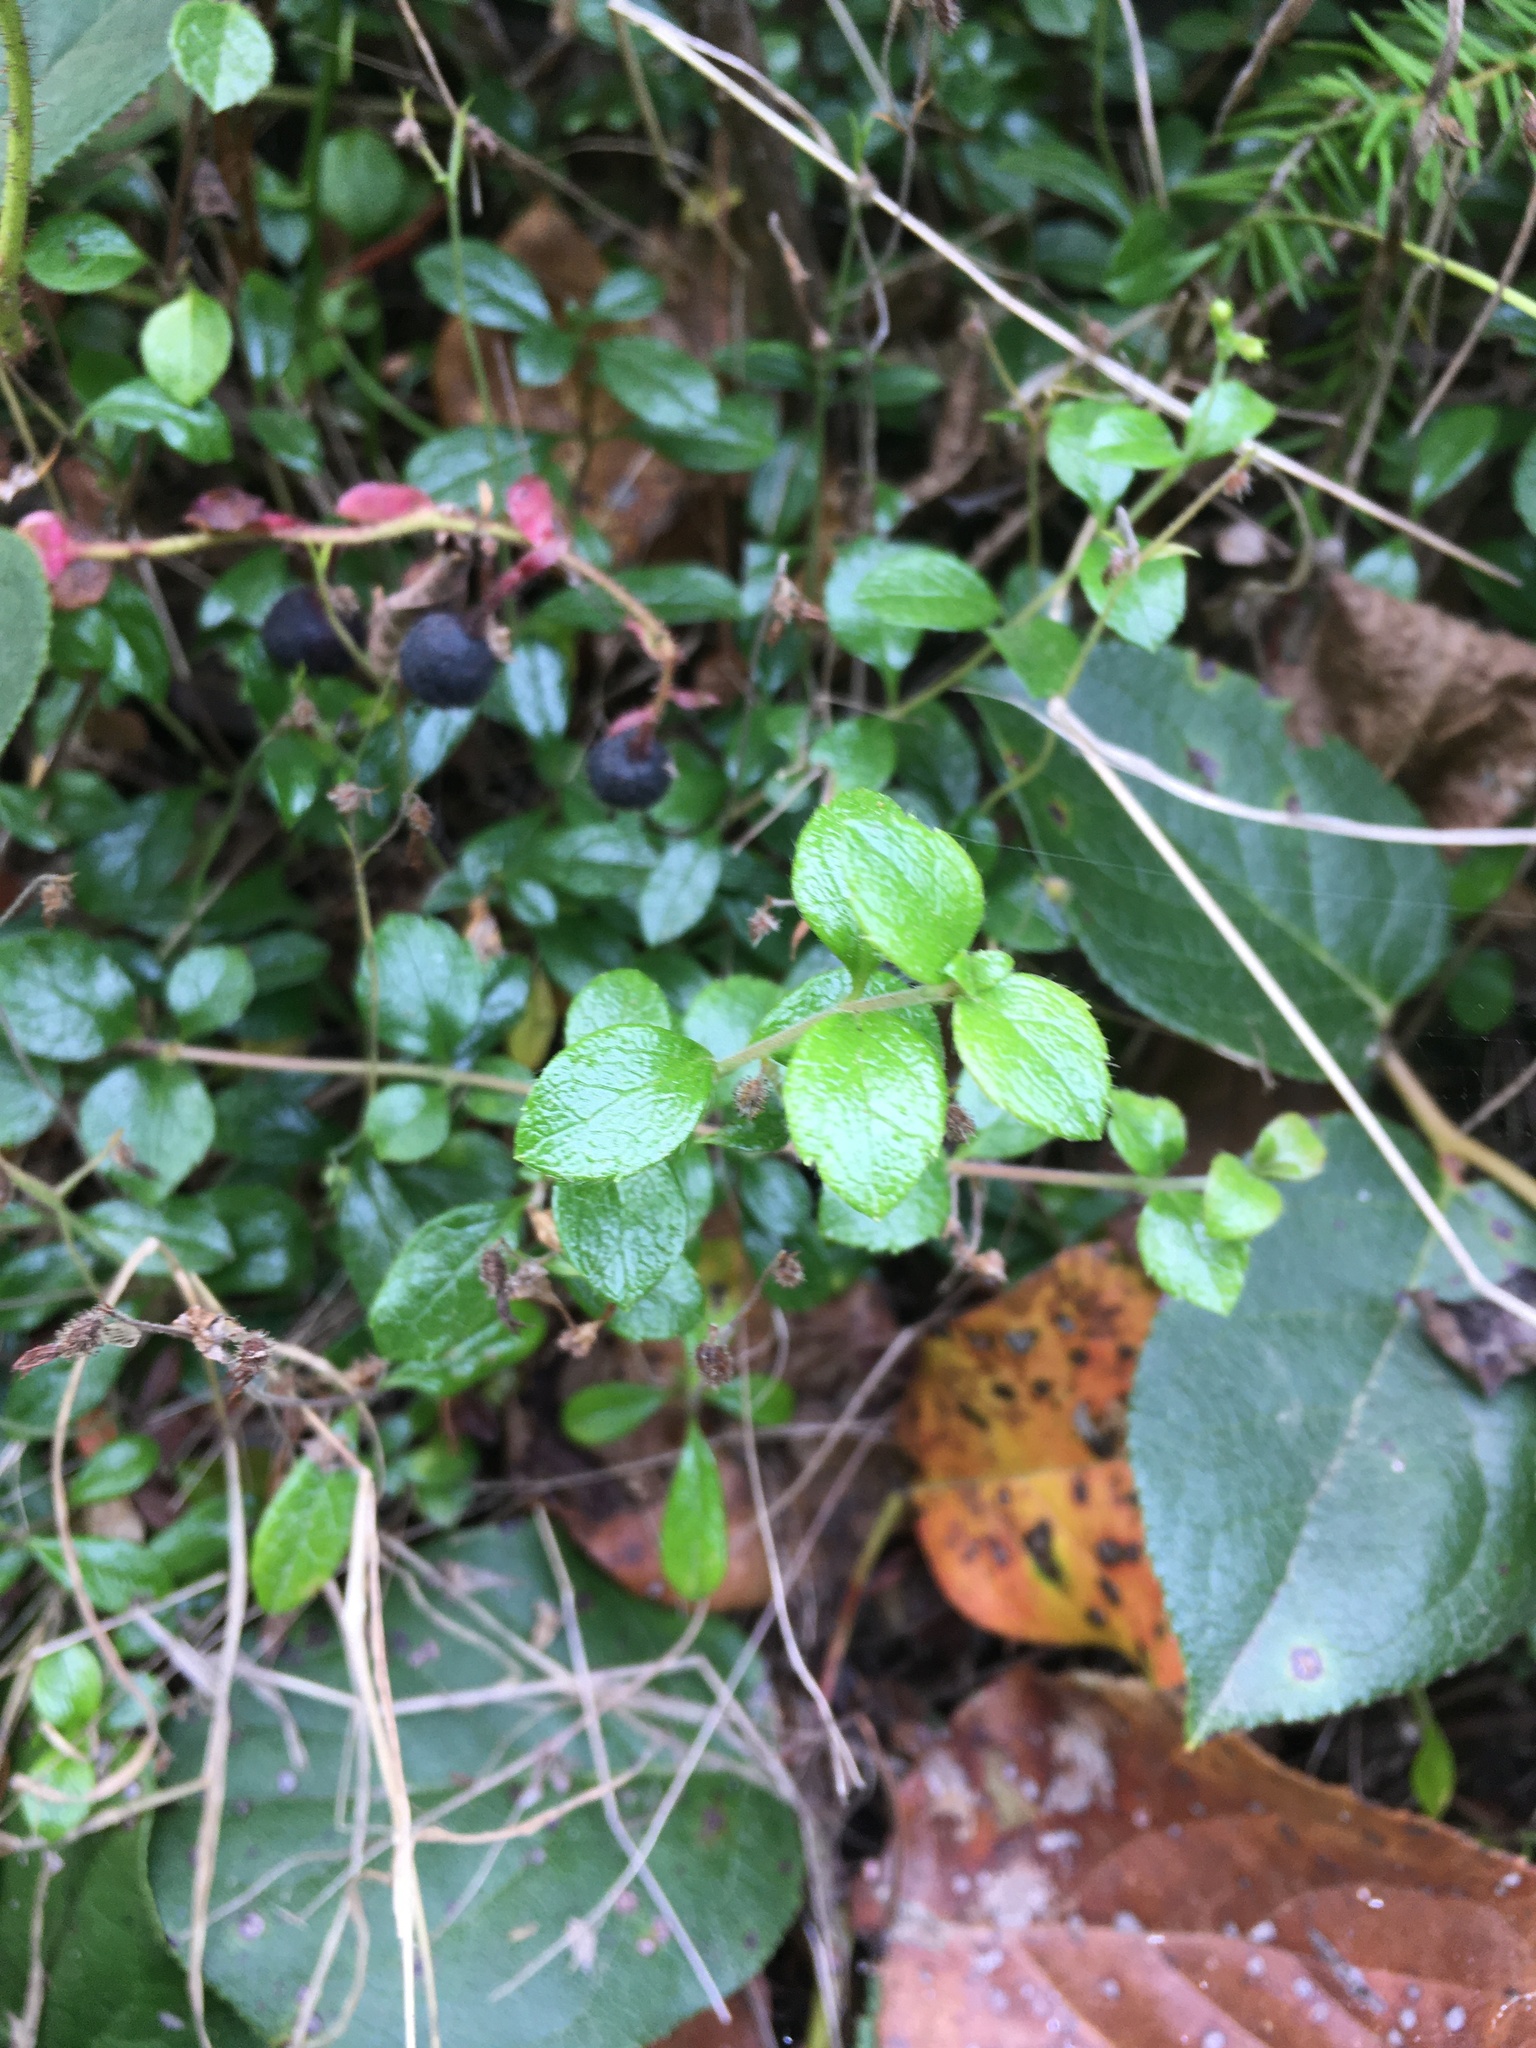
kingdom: Plantae
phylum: Tracheophyta
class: Magnoliopsida
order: Dipsacales
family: Caprifoliaceae
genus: Linnaea
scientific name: Linnaea borealis
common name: Twinflower
